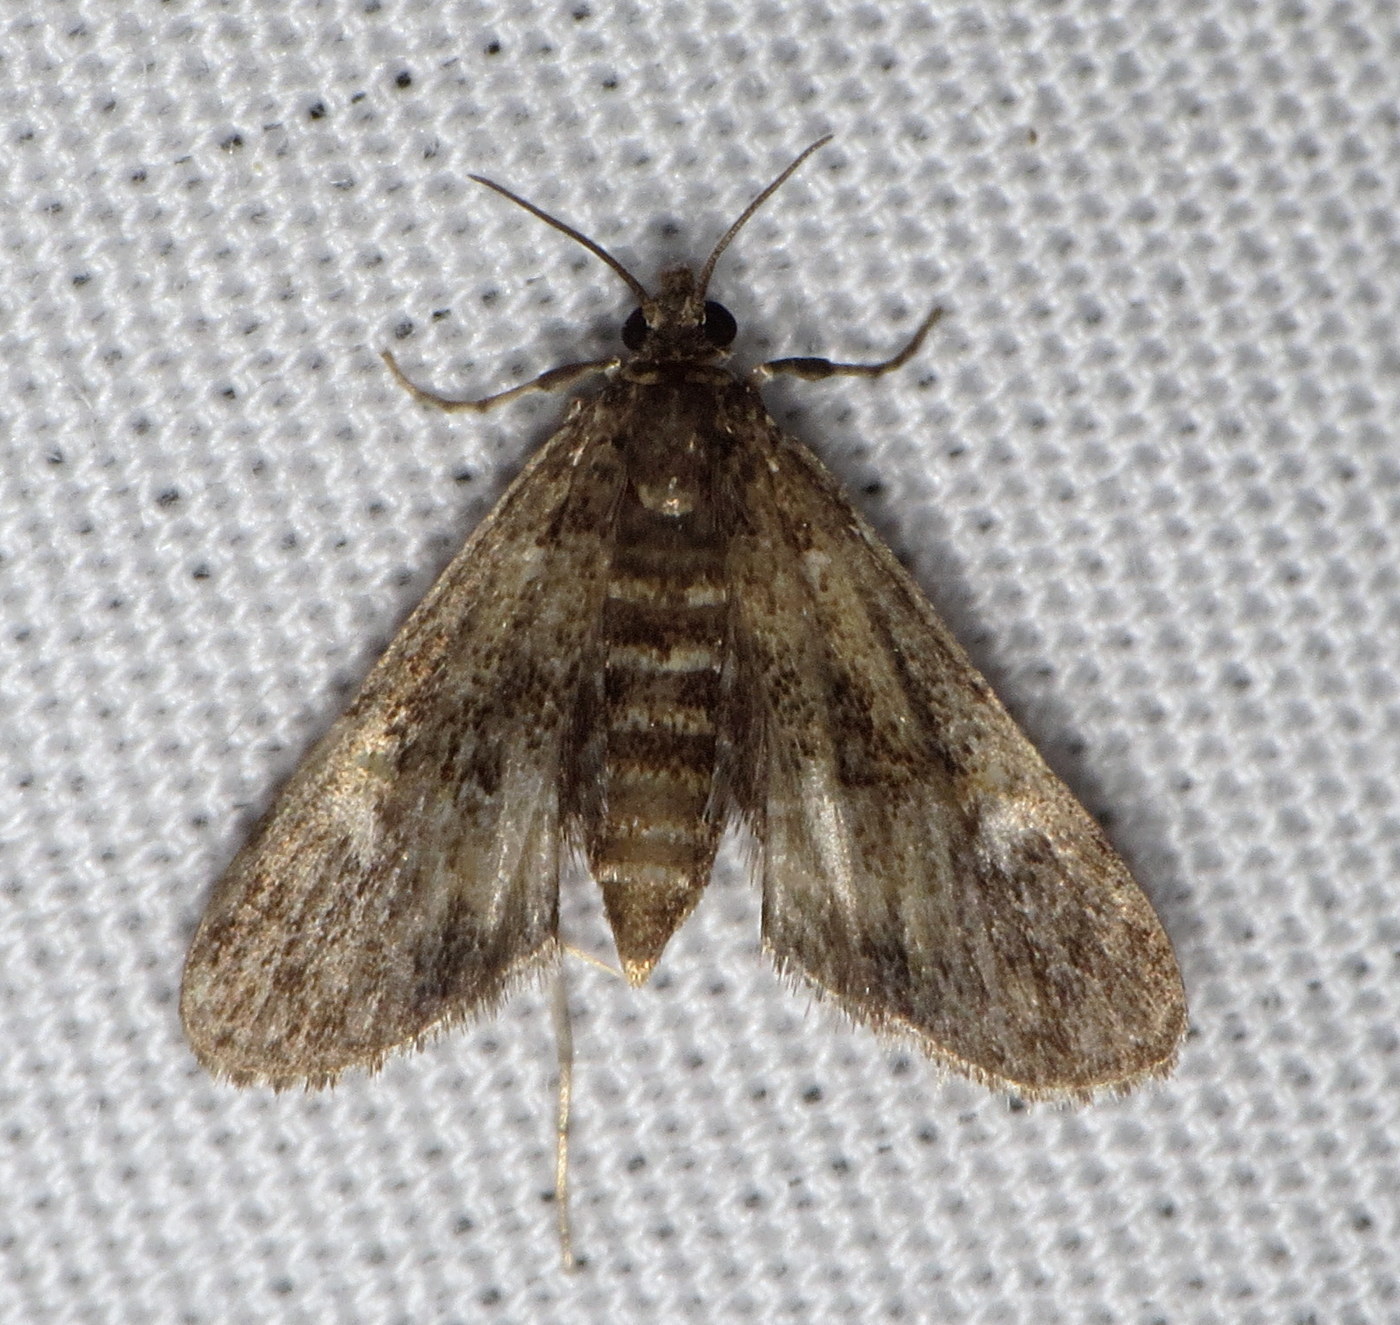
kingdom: Animalia
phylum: Arthropoda
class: Insecta
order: Lepidoptera
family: Crambidae
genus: Elophila
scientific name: Elophila obliteralis
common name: Waterlily leafcutter moth
